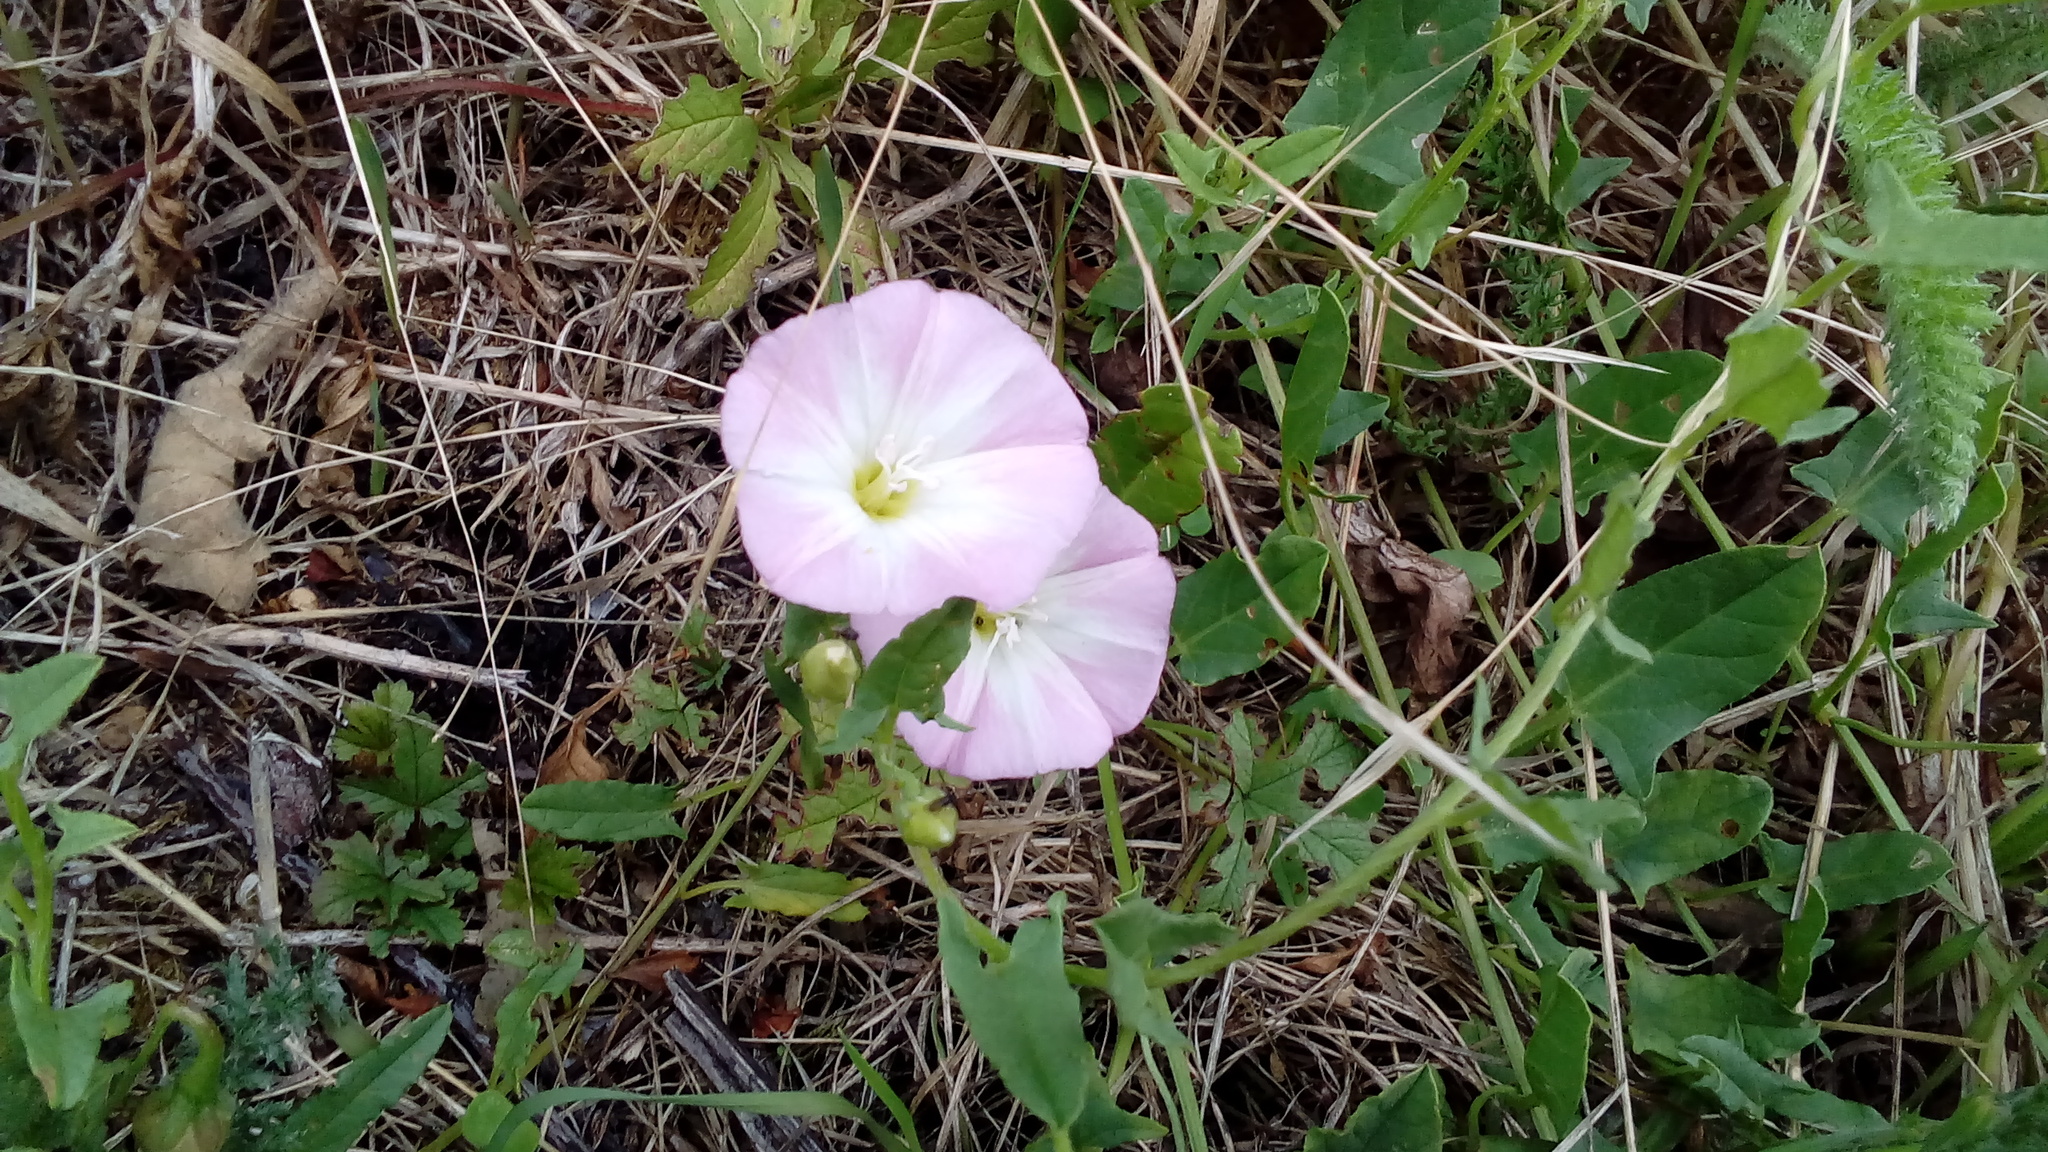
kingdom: Plantae
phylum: Tracheophyta
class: Magnoliopsida
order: Solanales
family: Convolvulaceae
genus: Convolvulus
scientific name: Convolvulus arvensis
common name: Field bindweed
